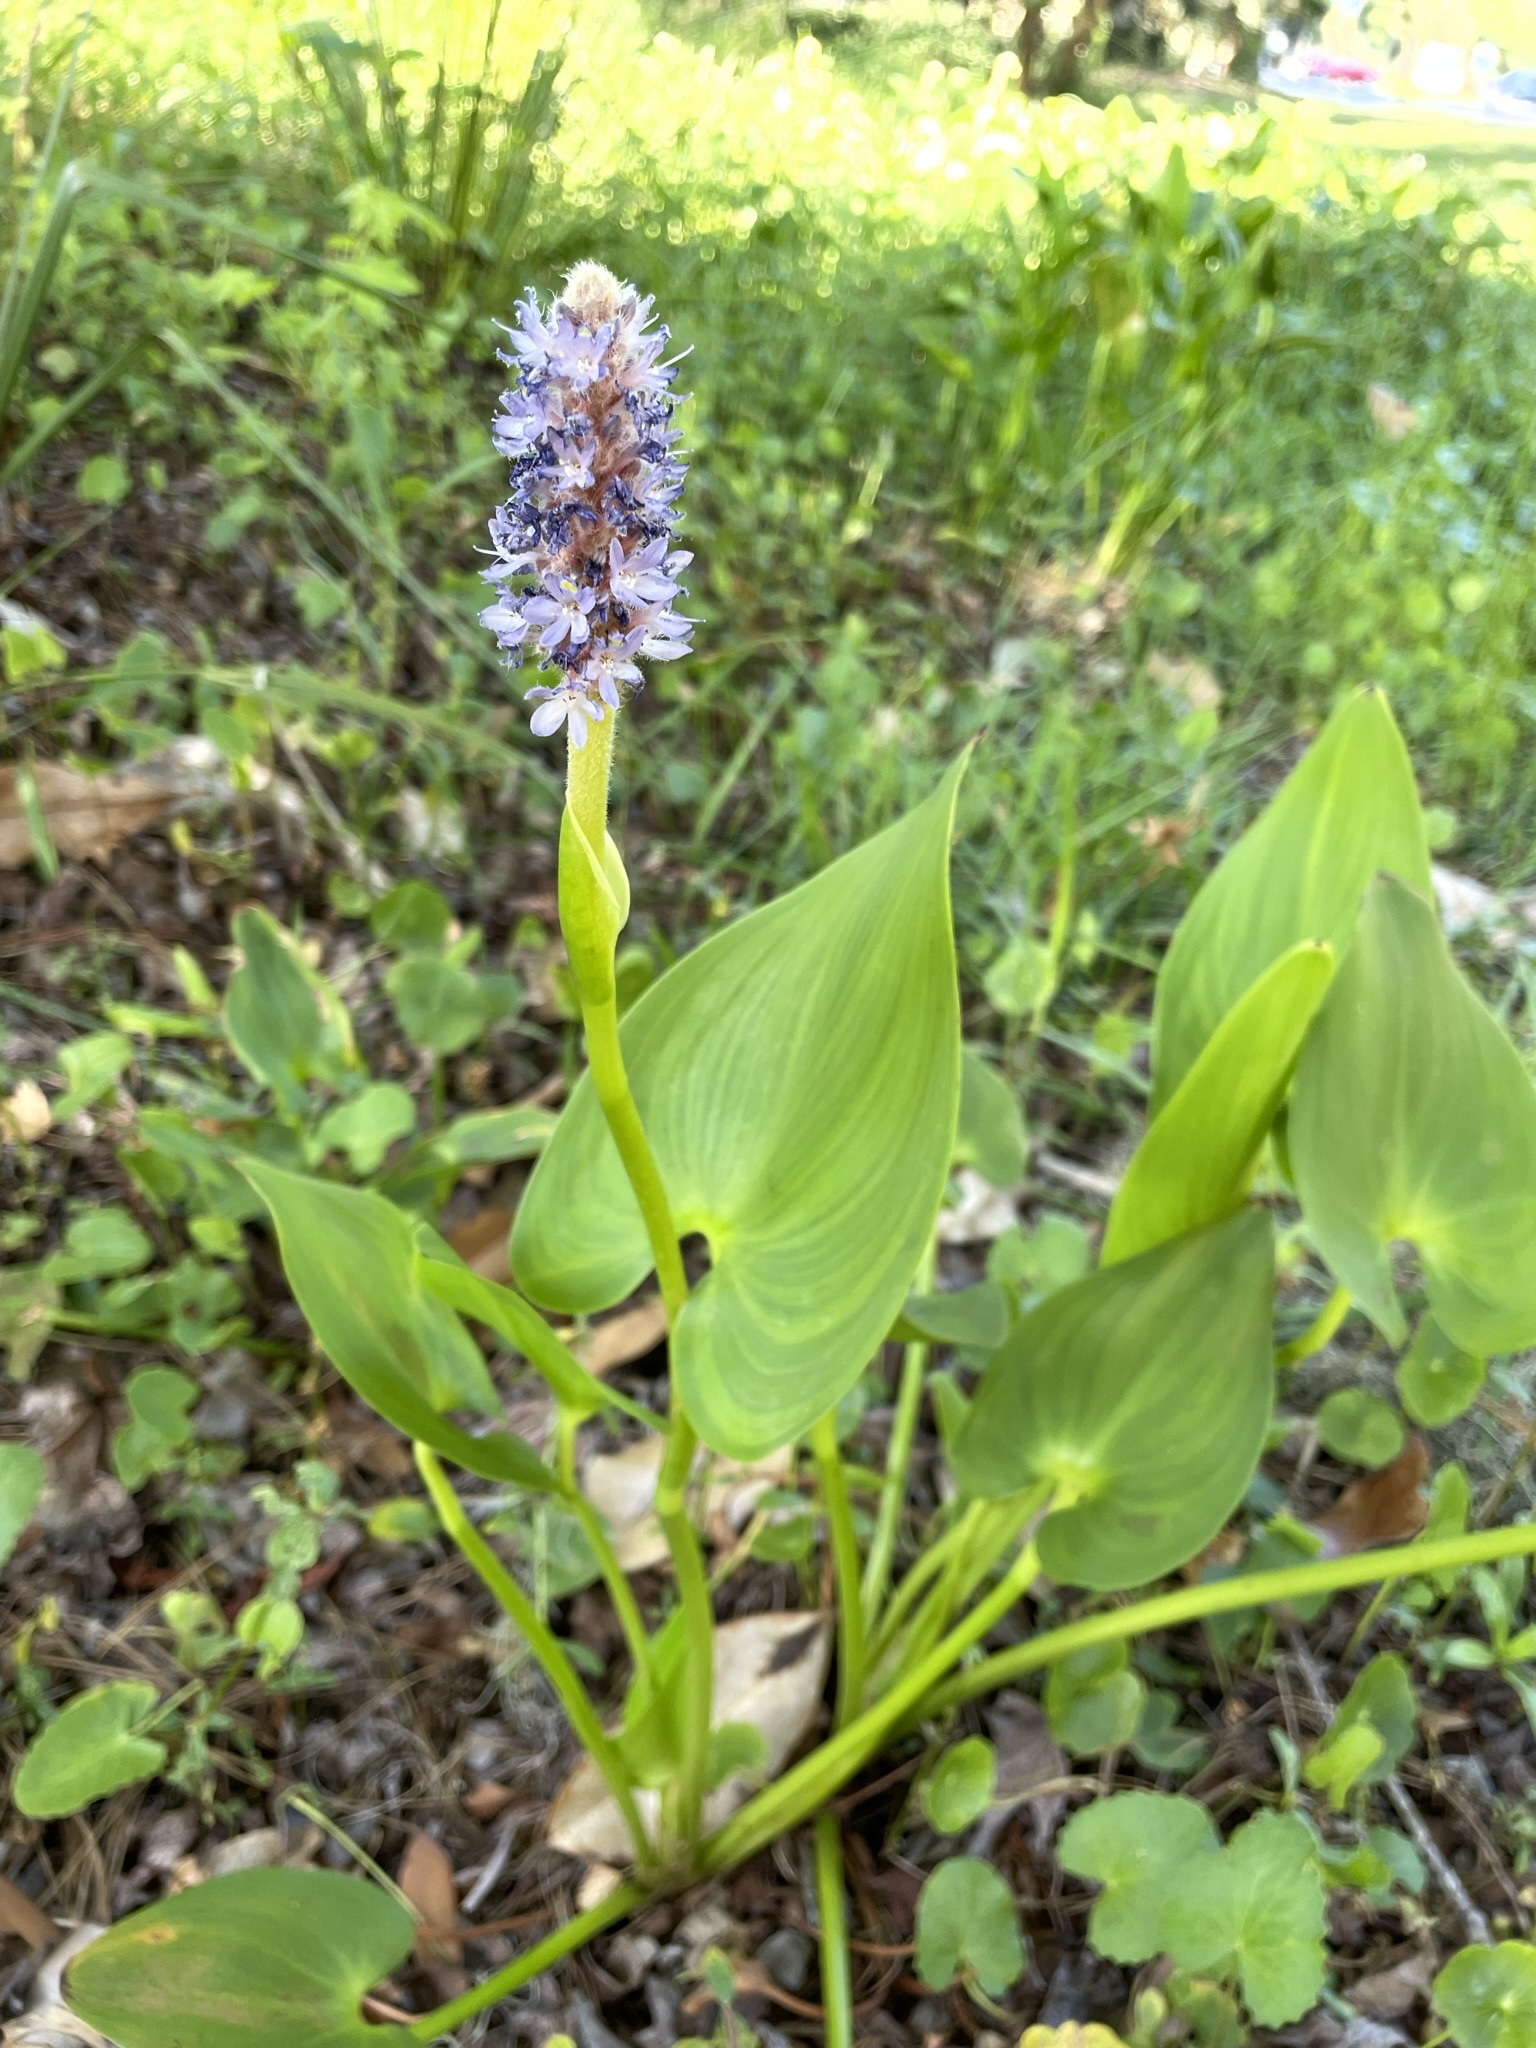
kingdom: Plantae
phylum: Tracheophyta
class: Liliopsida
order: Commelinales
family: Pontederiaceae
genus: Pontederia
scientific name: Pontederia cordata
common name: Pickerelweed
